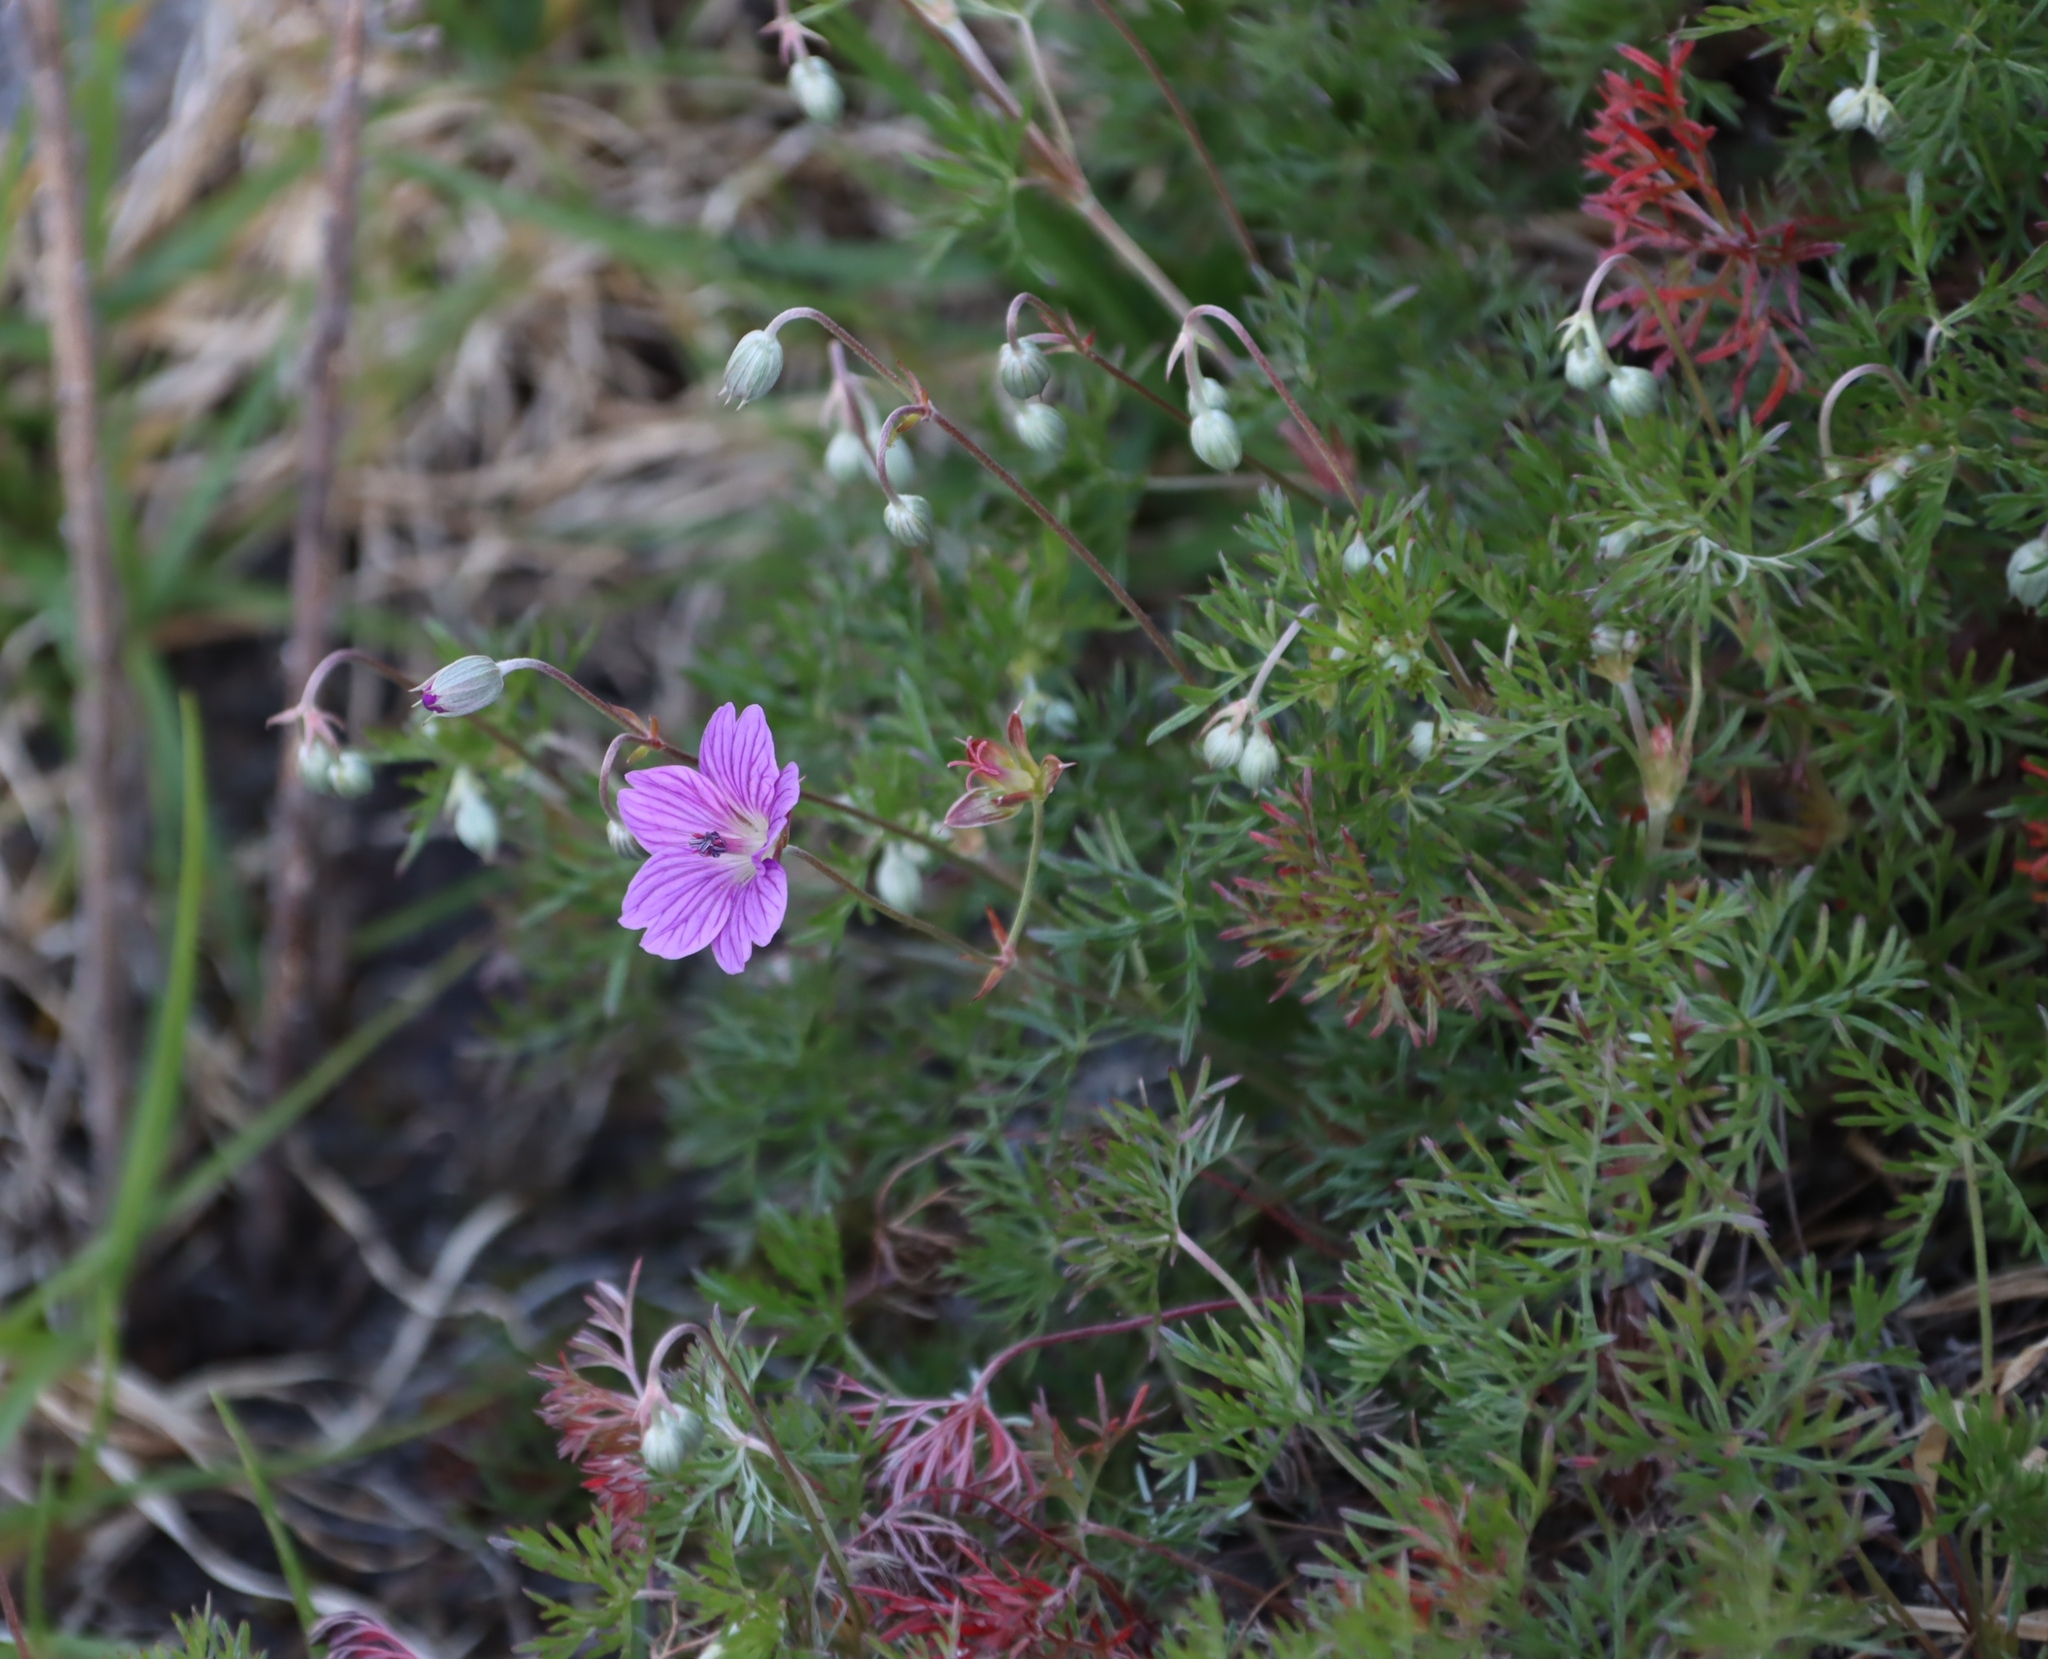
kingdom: Plantae
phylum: Tracheophyta
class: Magnoliopsida
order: Geraniales
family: Geraniaceae
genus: Geranium
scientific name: Geranium incanum
